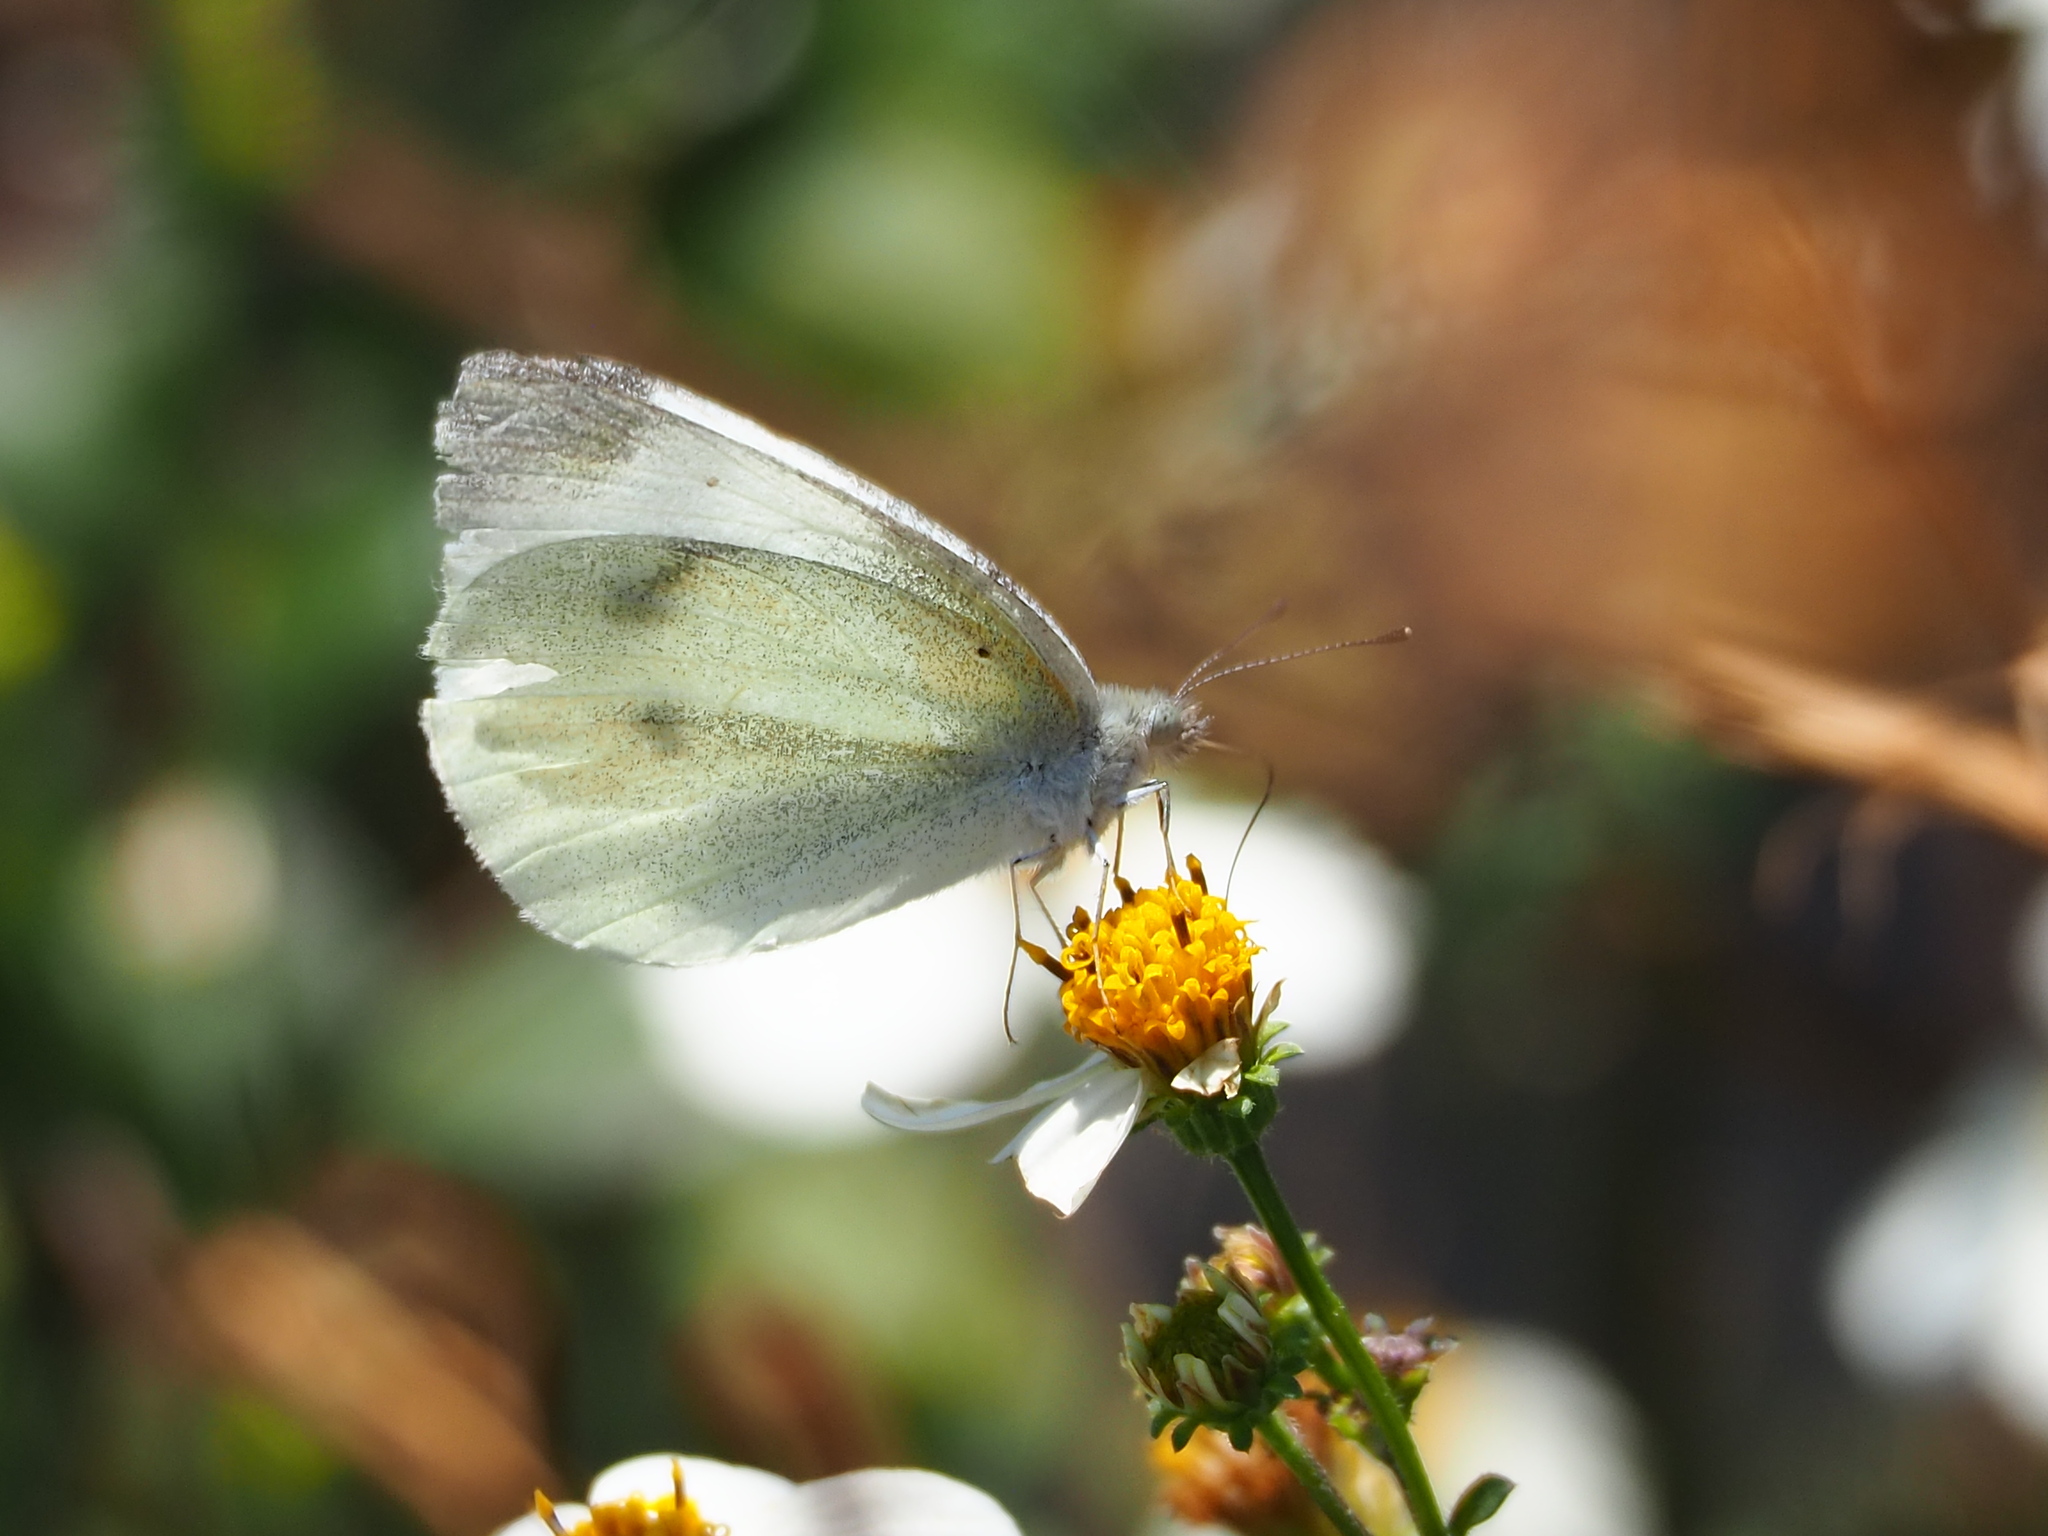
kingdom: Animalia
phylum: Arthropoda
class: Insecta
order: Lepidoptera
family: Pieridae
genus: Pieris
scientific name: Pieris rapae
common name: Small white
